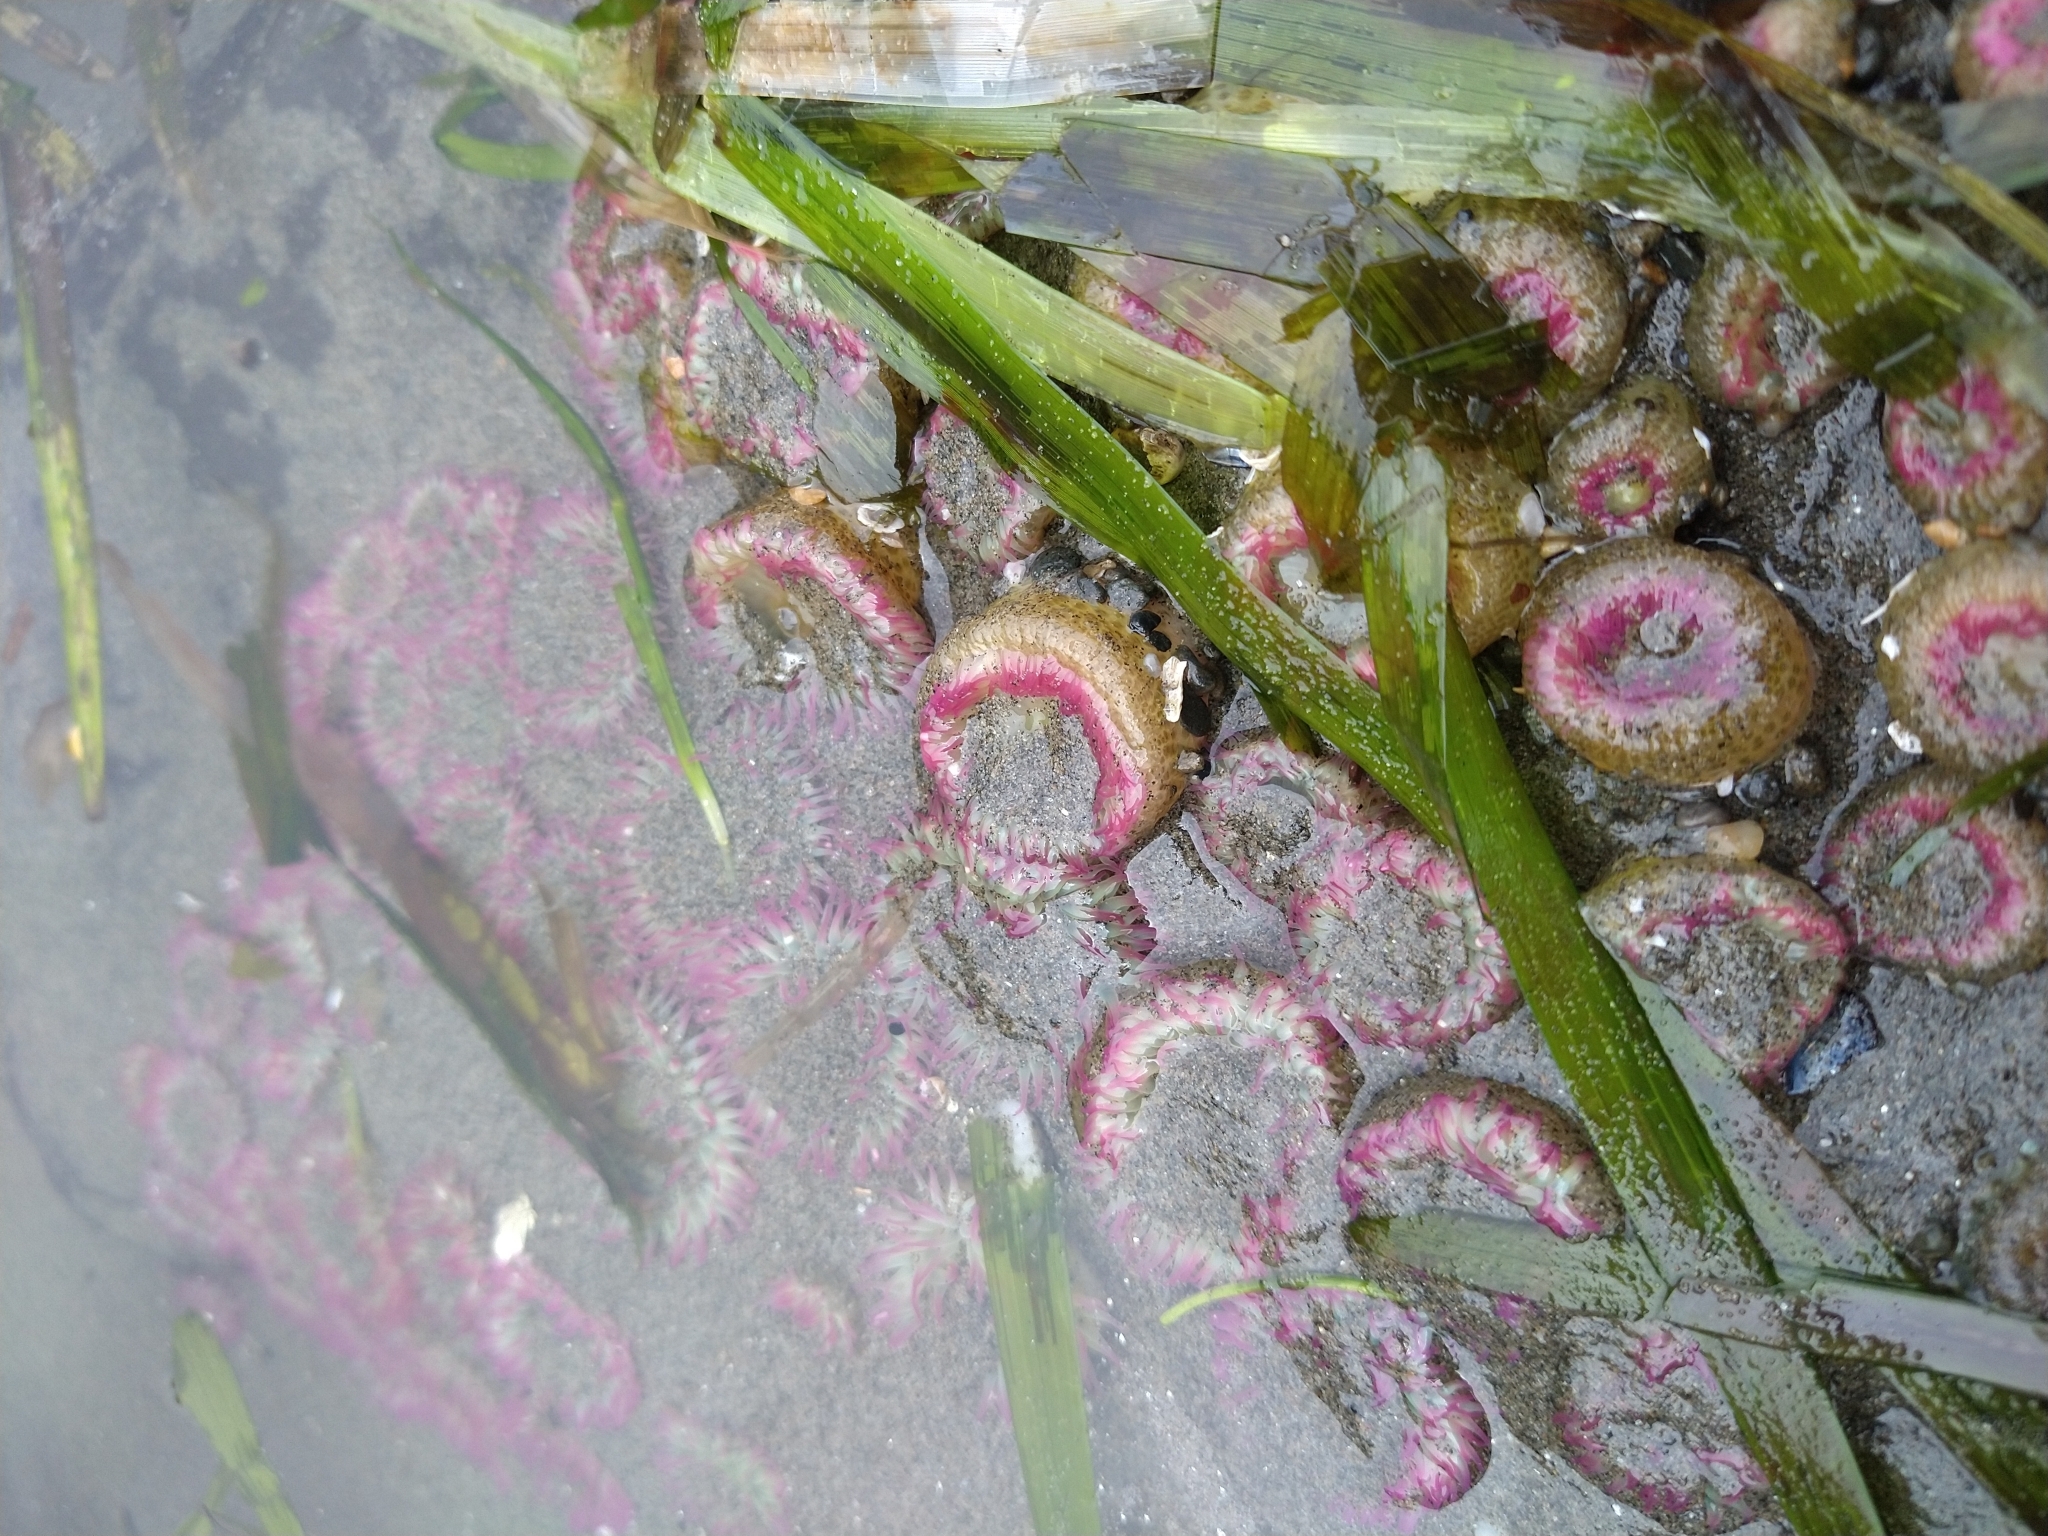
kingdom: Animalia
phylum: Cnidaria
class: Anthozoa
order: Actiniaria
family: Actiniidae
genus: Anthopleura
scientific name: Anthopleura elegantissima
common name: Clonal anemone
